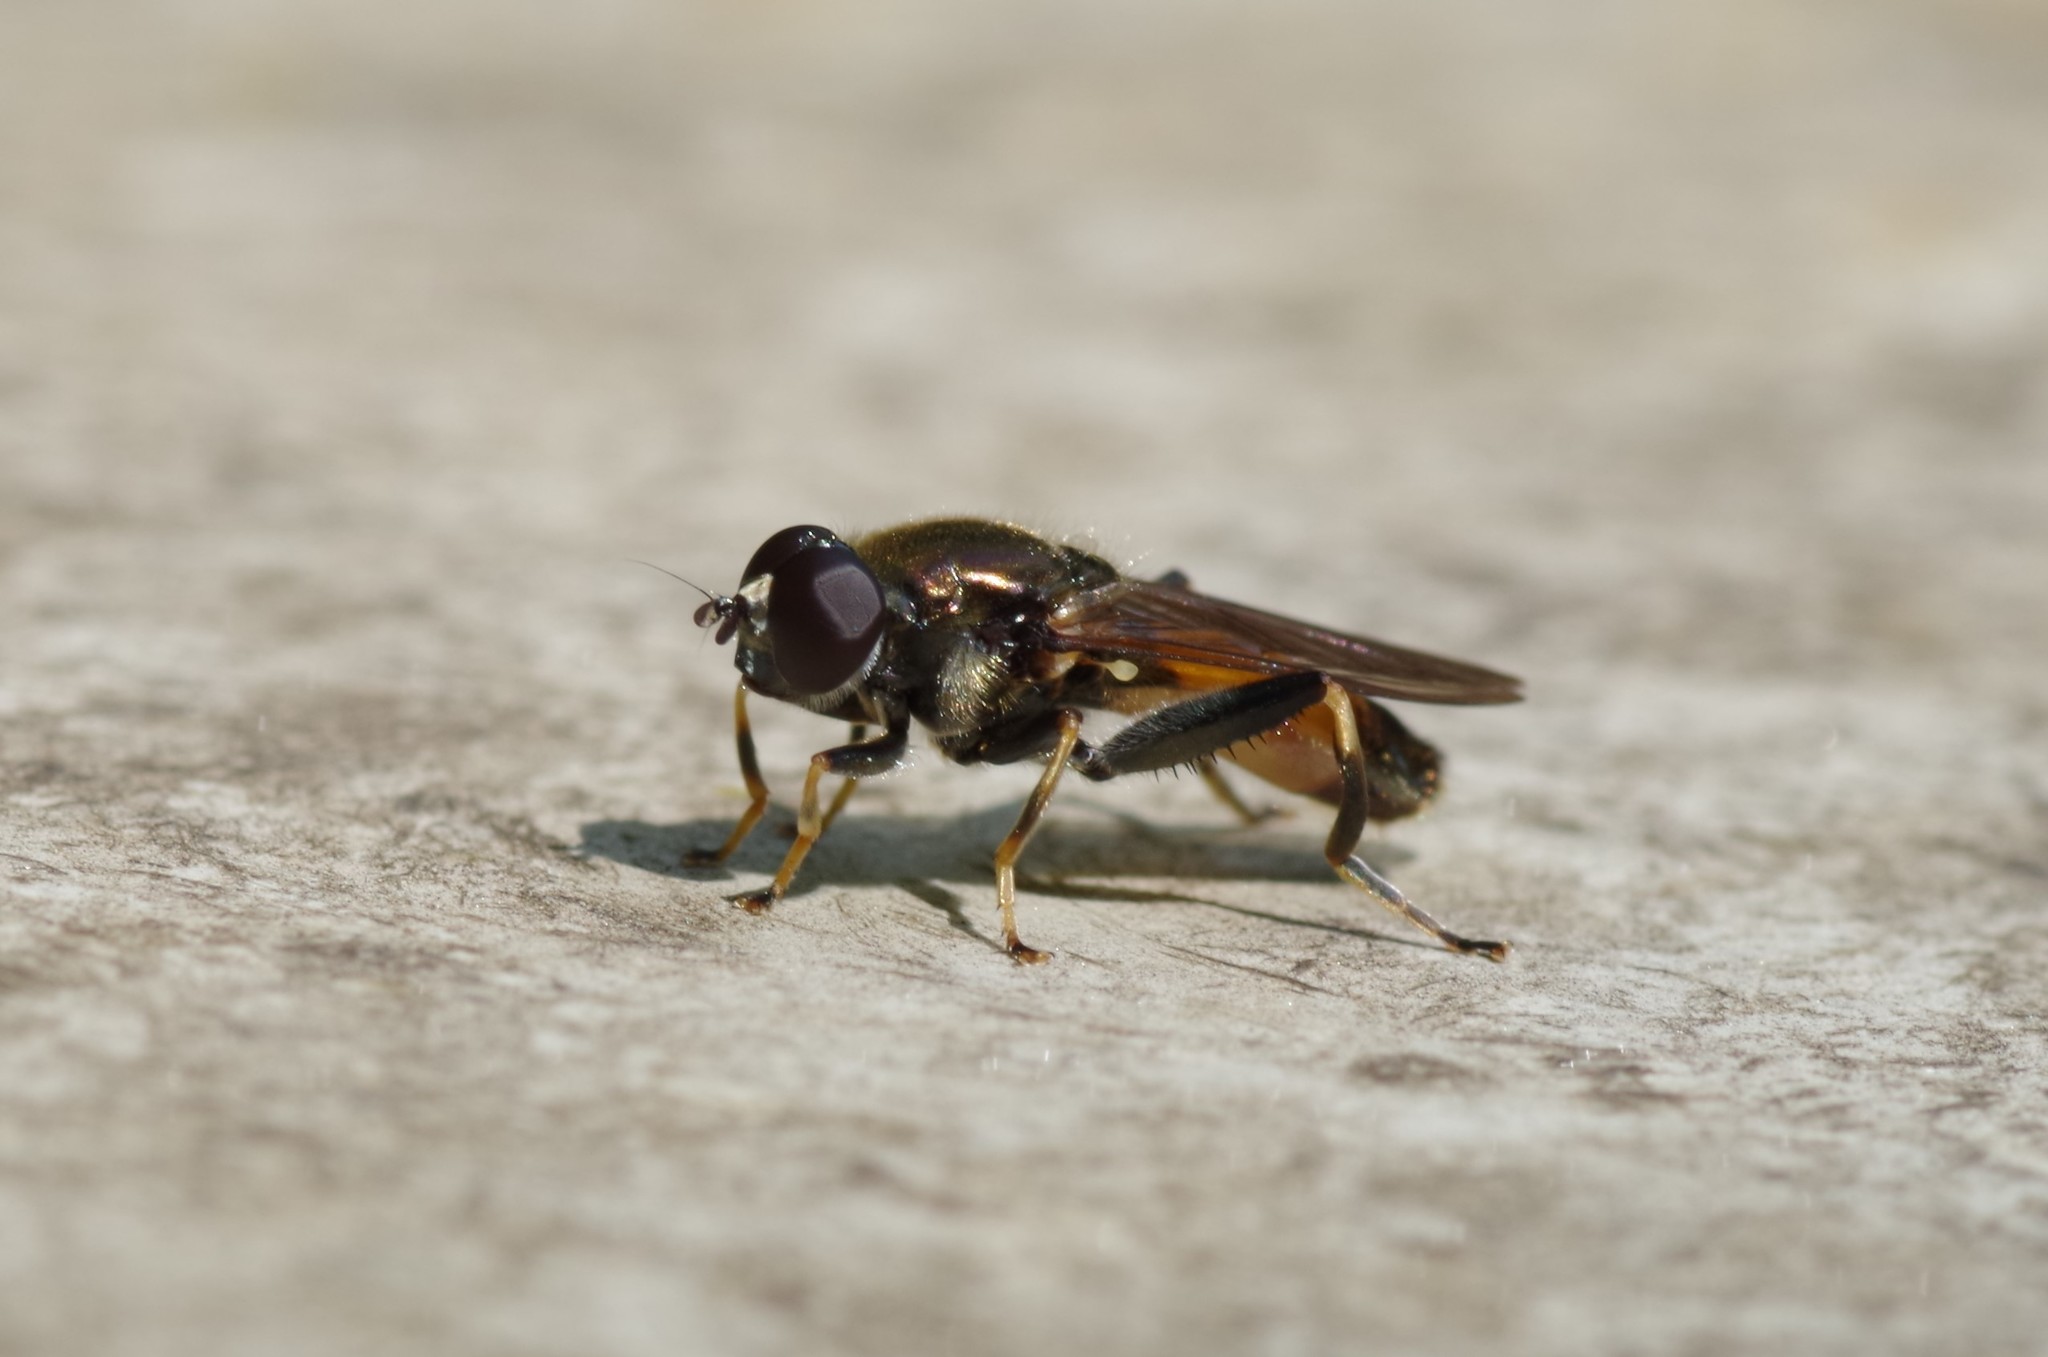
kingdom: Animalia
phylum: Arthropoda
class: Insecta
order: Diptera
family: Syrphidae
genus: Xylota
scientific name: Xylota segnis
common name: Brown-toed forest fly
